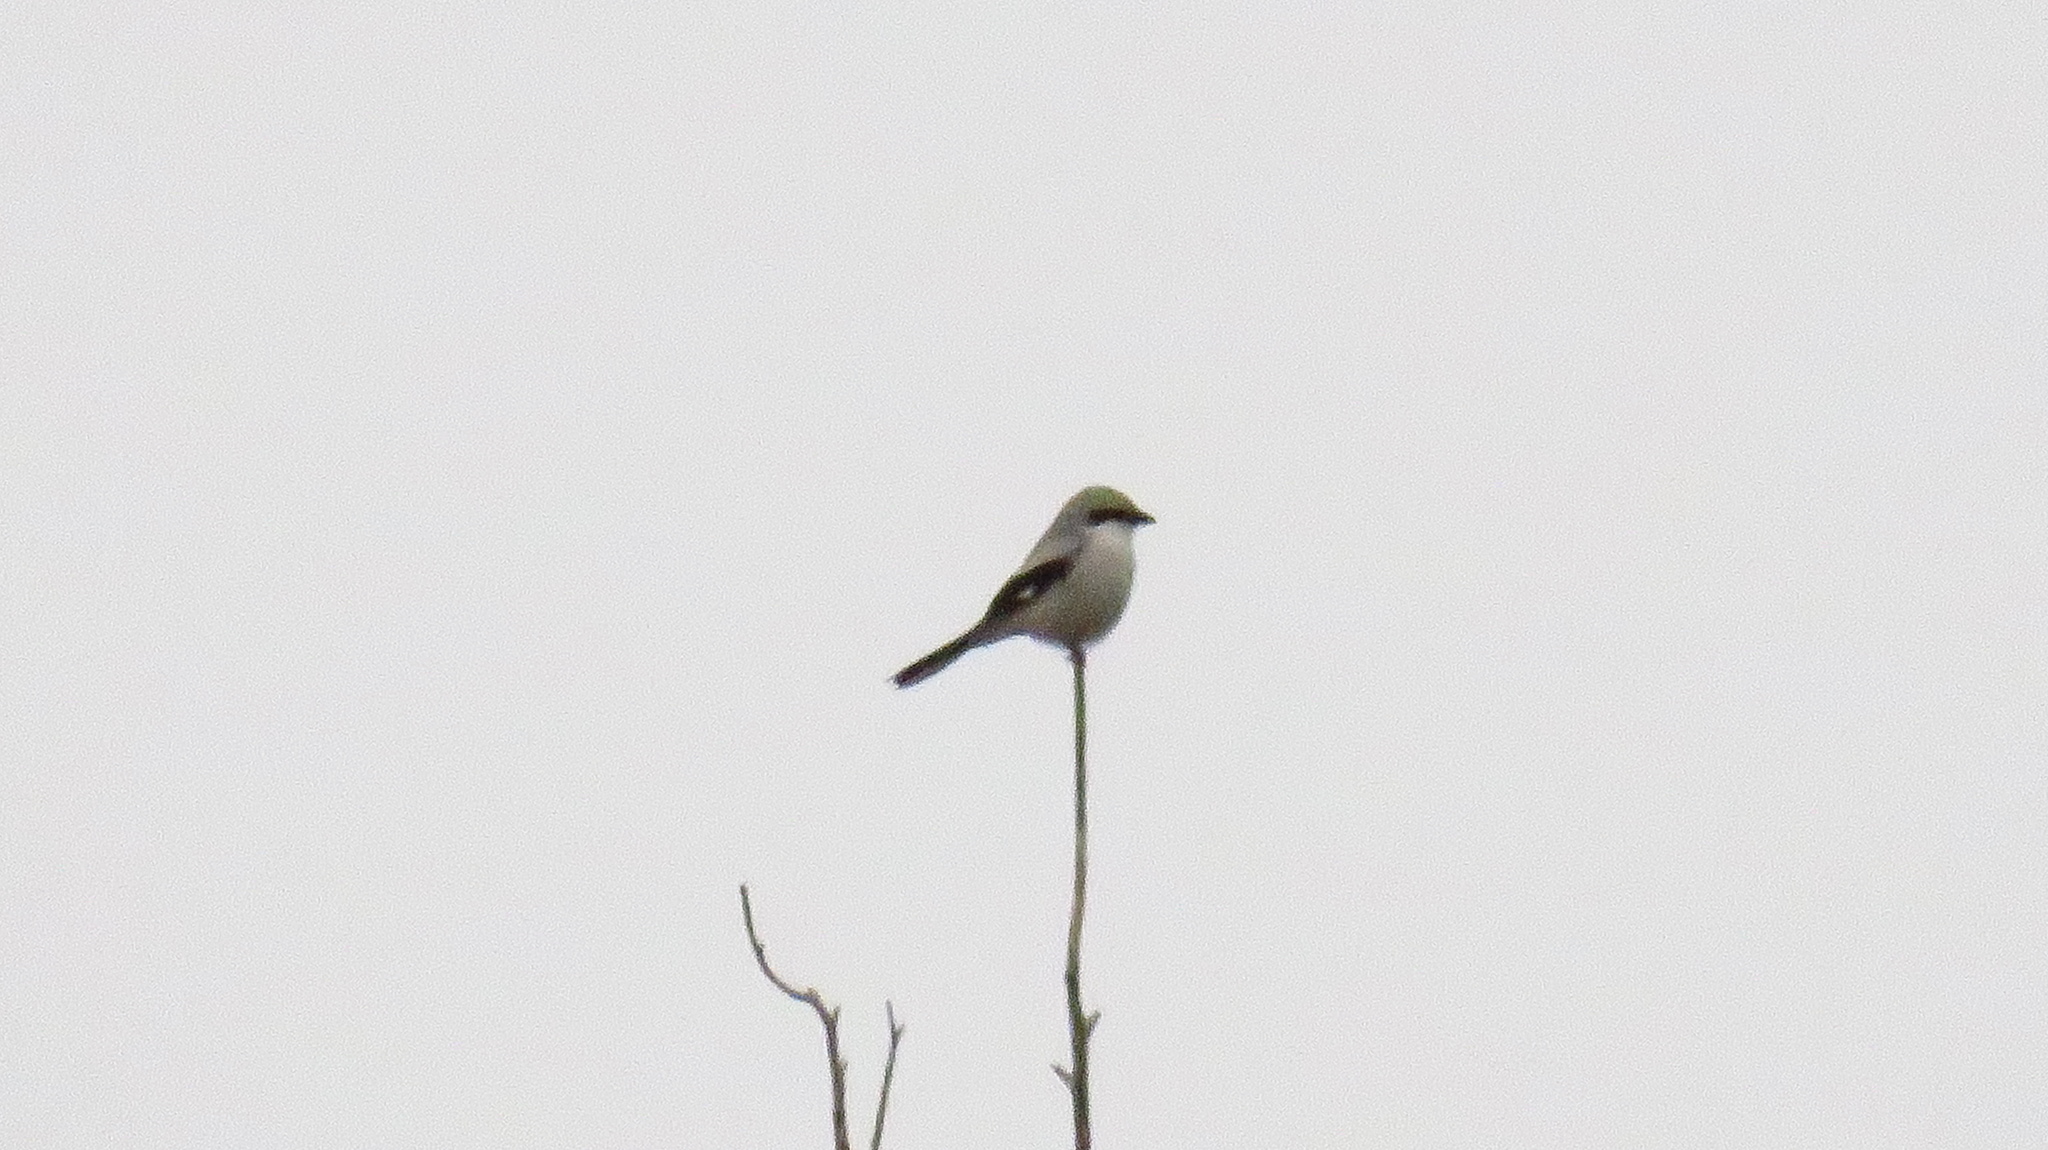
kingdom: Animalia
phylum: Chordata
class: Aves
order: Passeriformes
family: Laniidae
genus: Lanius
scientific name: Lanius excubitor
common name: Great grey shrike
